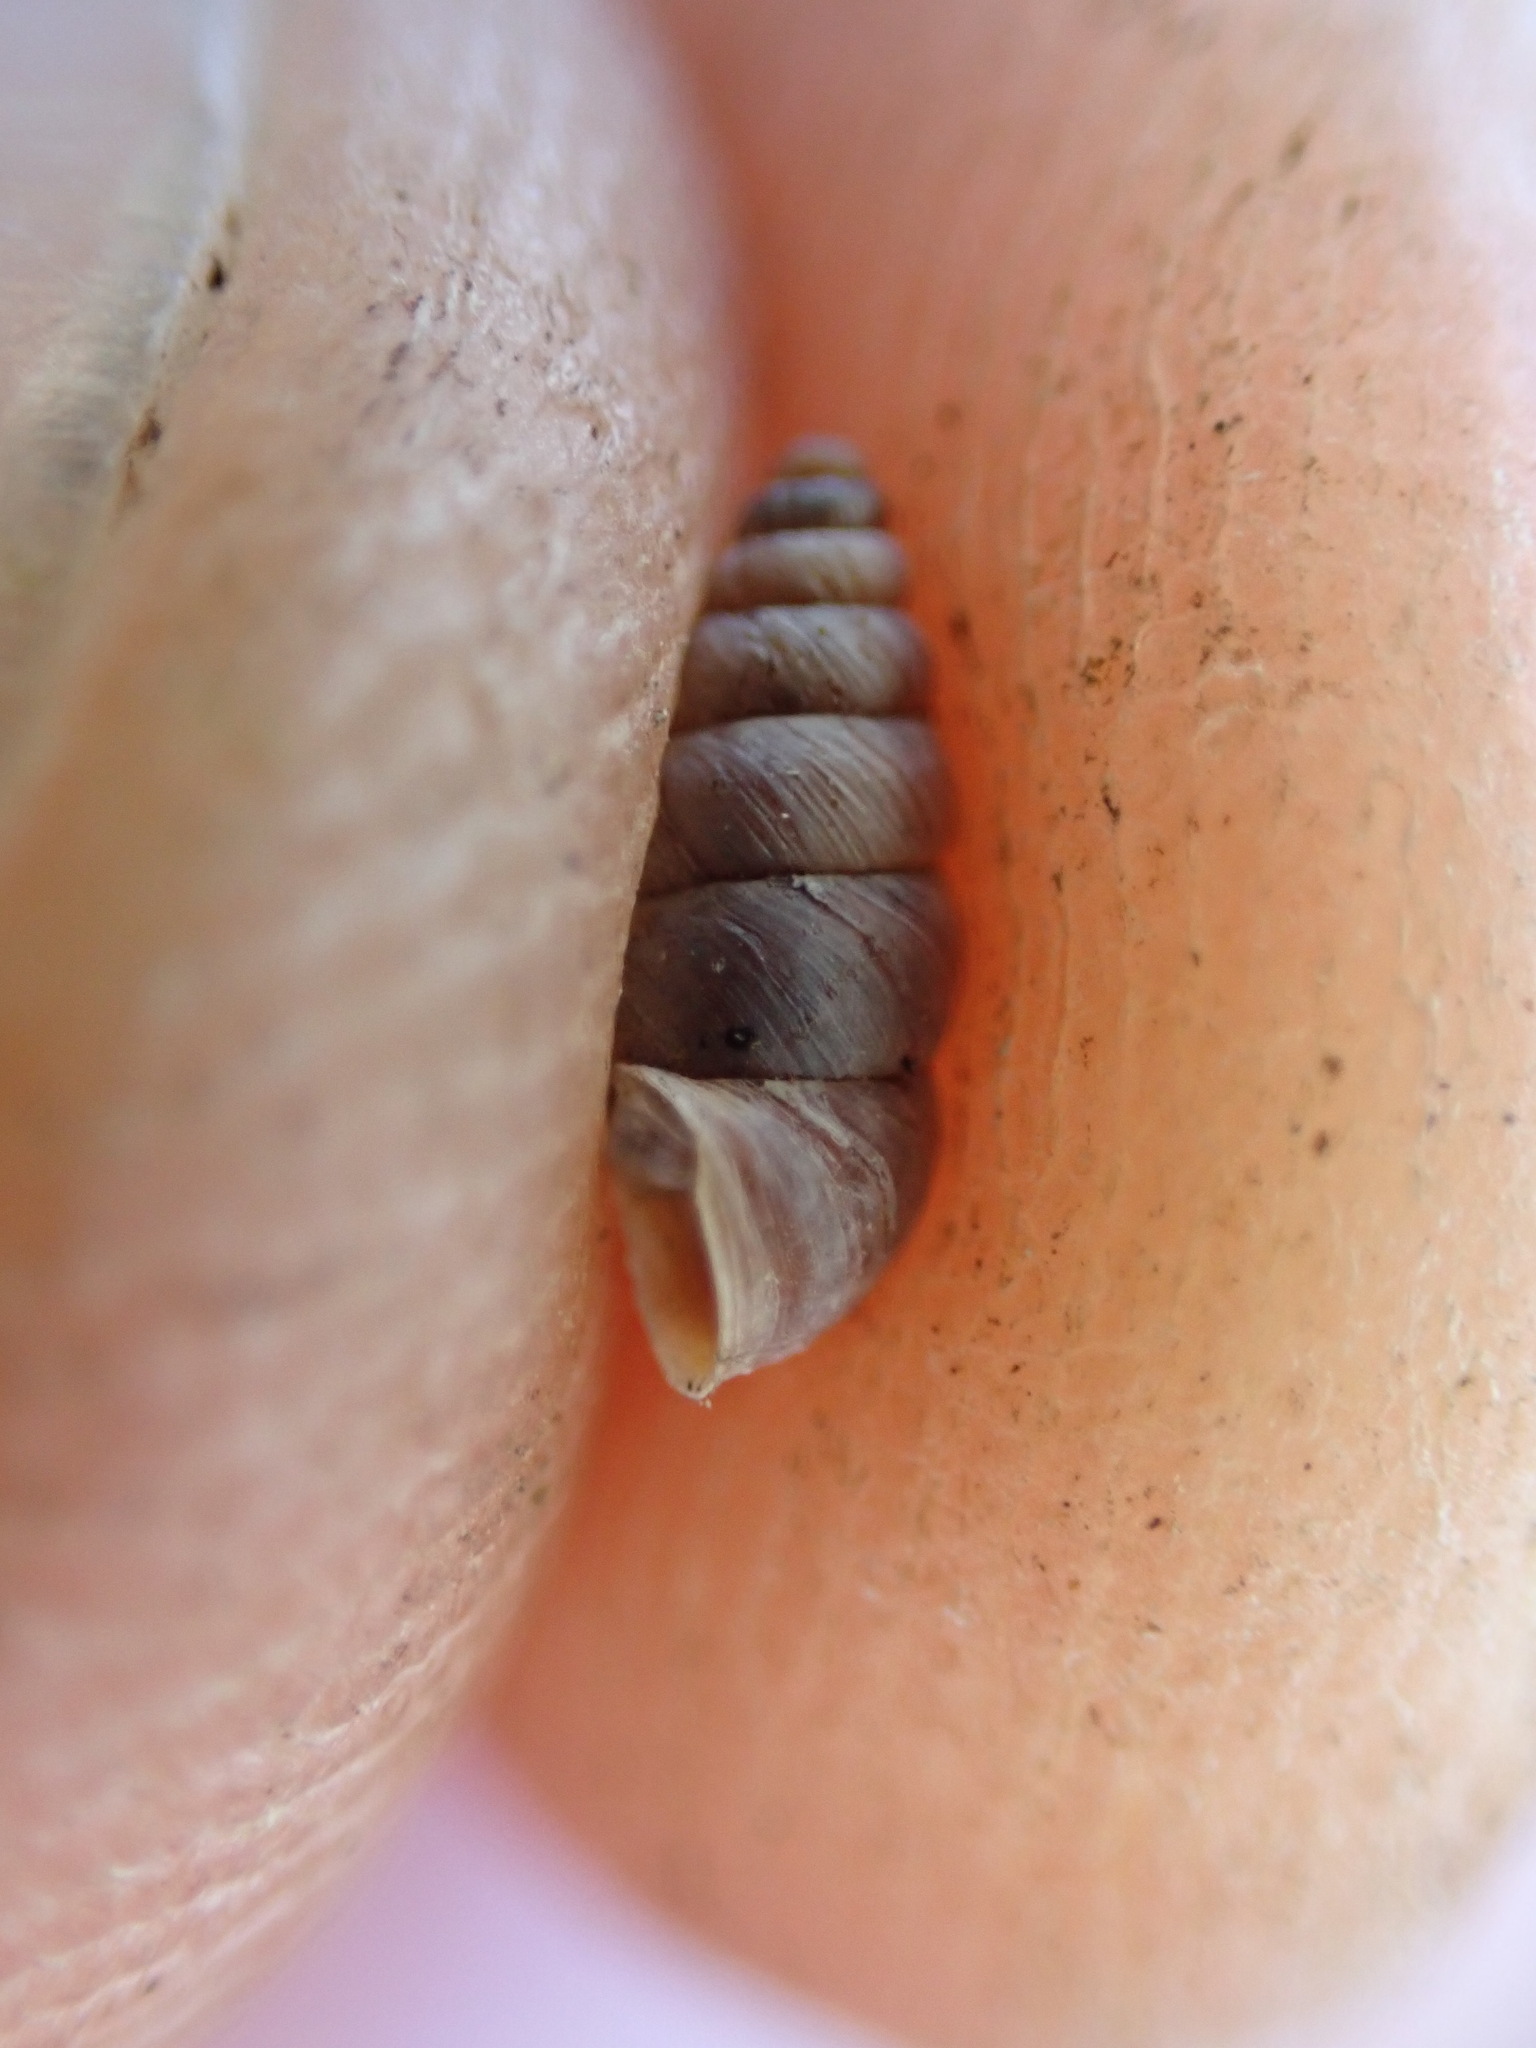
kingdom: Animalia
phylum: Mollusca
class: Gastropoda
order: Stylommatophora
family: Chondrinidae
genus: Chondrina
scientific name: Chondrina avenacea
